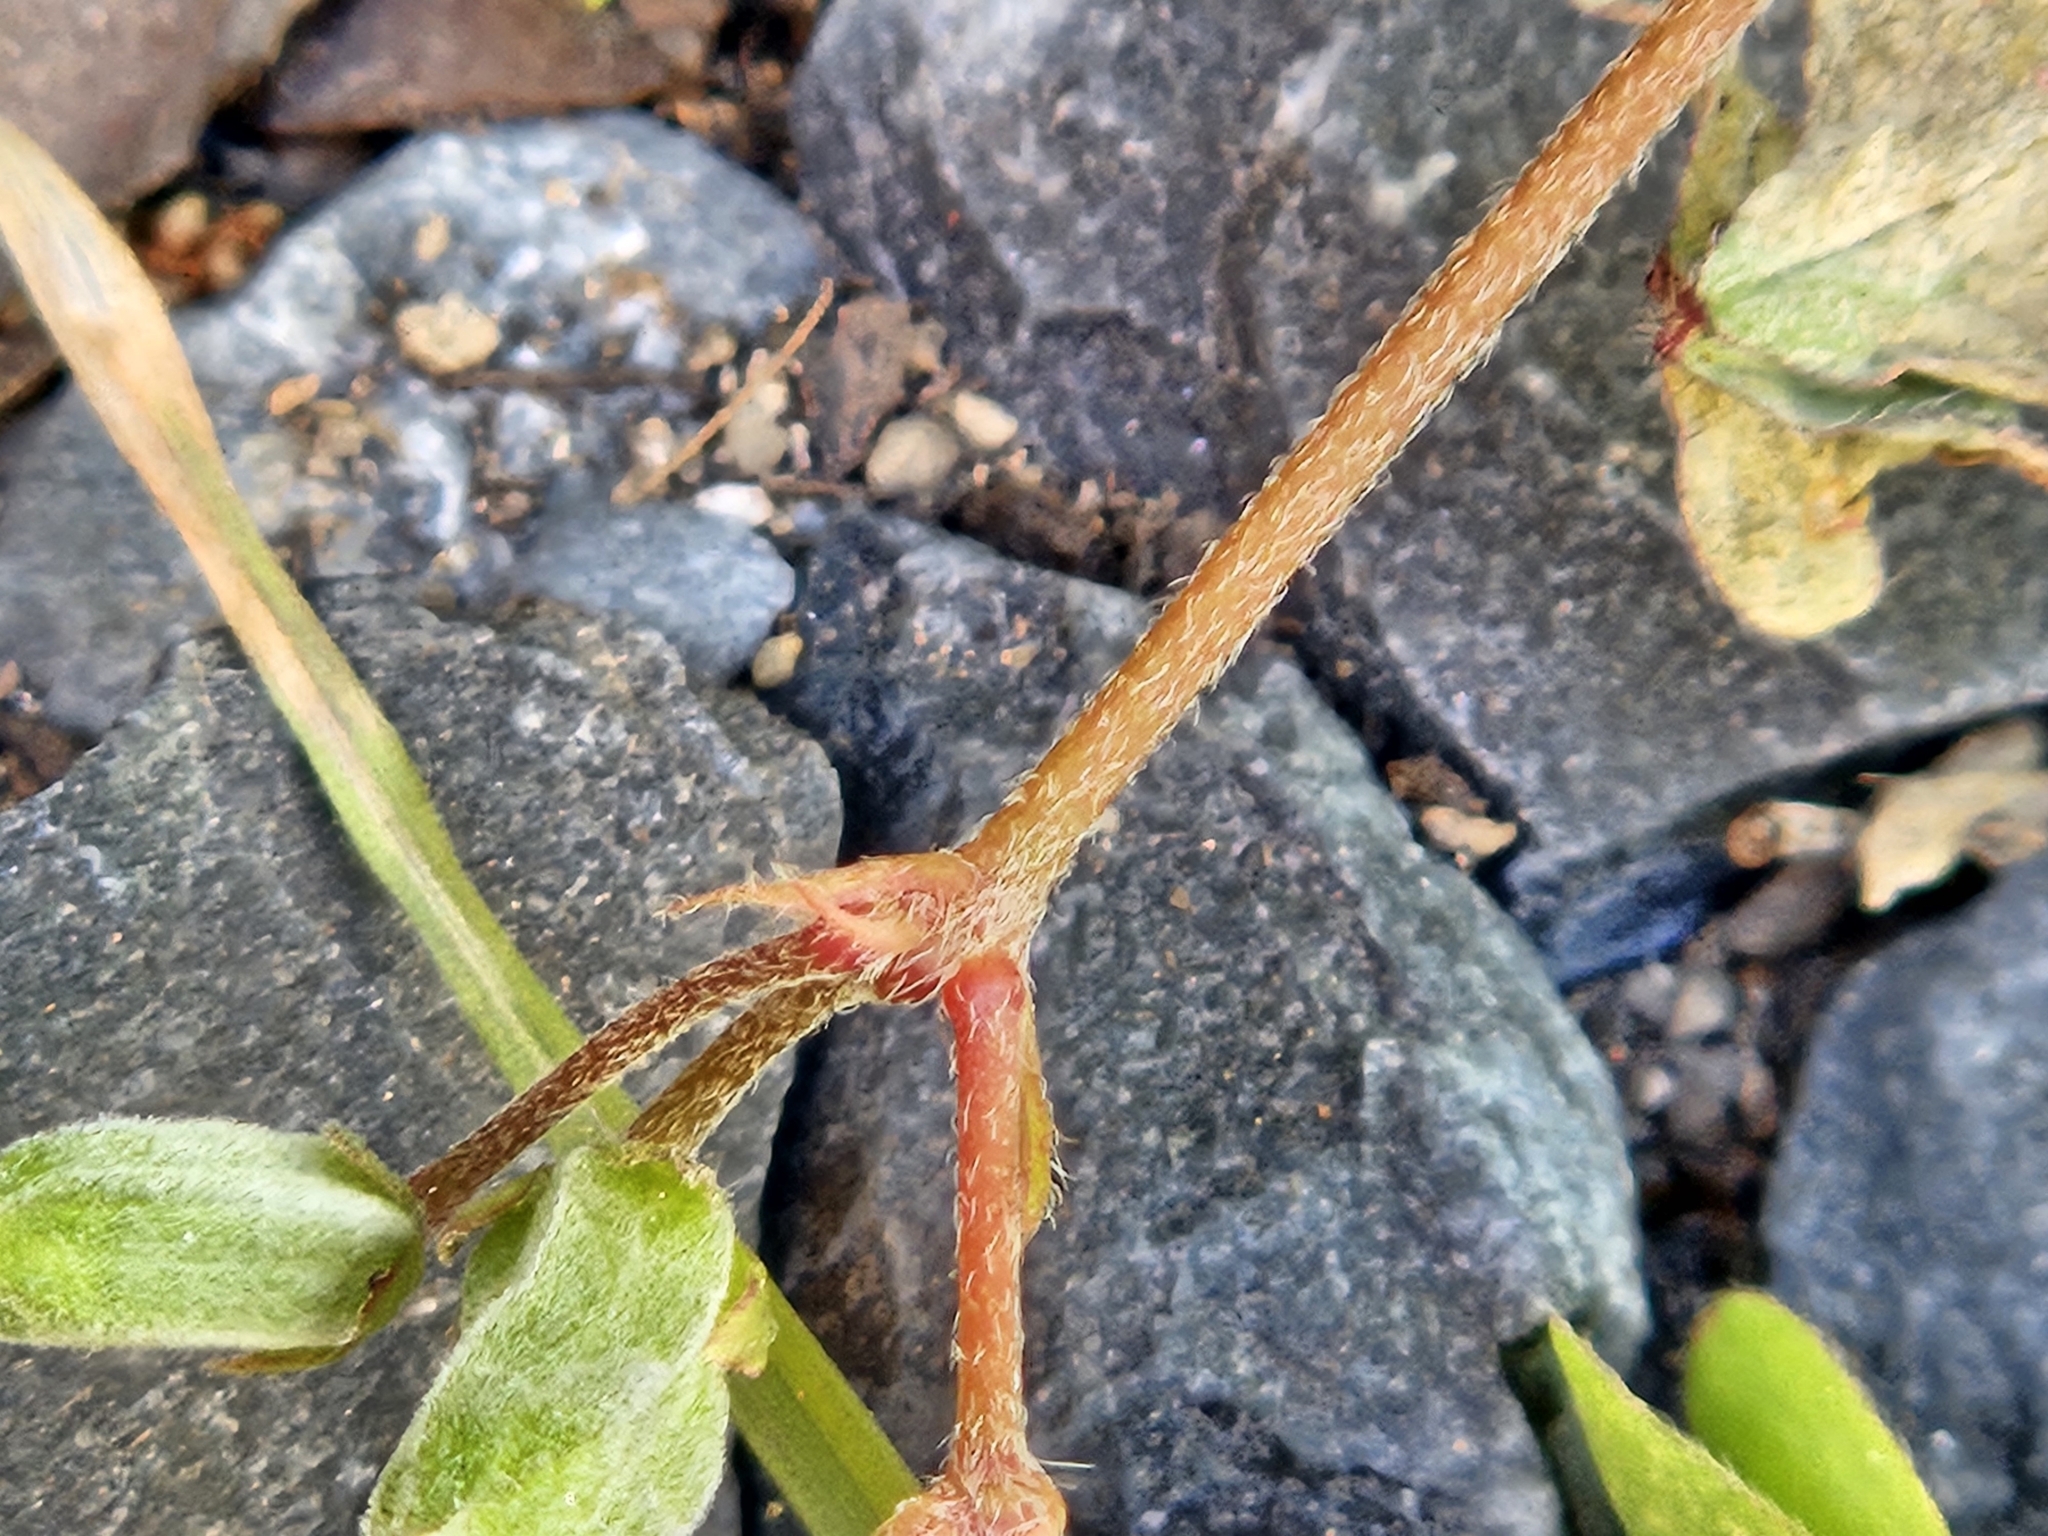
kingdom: Plantae
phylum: Tracheophyta
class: Magnoliopsida
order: Oxalidales
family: Oxalidaceae
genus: Oxalis
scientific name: Oxalis corniculata
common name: Procumbent yellow-sorrel
